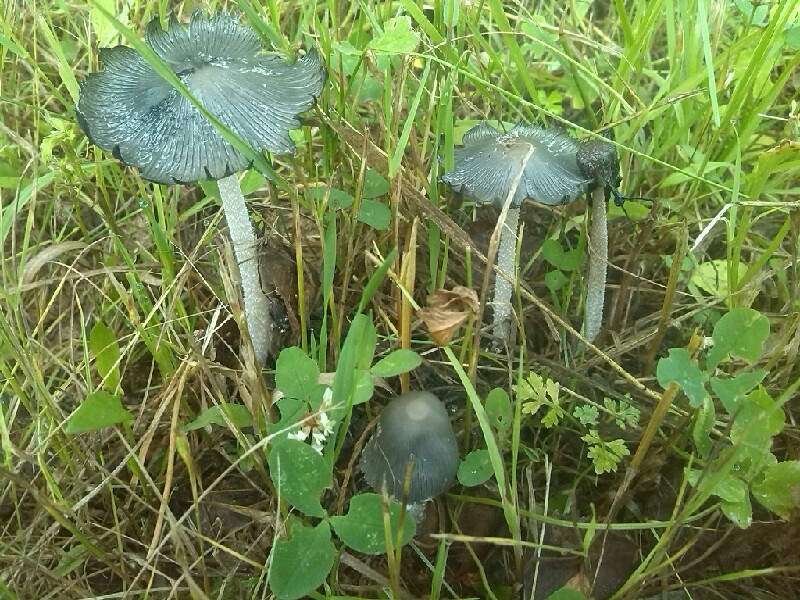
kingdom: Fungi
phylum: Basidiomycota
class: Agaricomycetes
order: Agaricales
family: Psathyrellaceae
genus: Coprinopsis
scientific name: Coprinopsis atramentaria
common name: Common ink-cap
